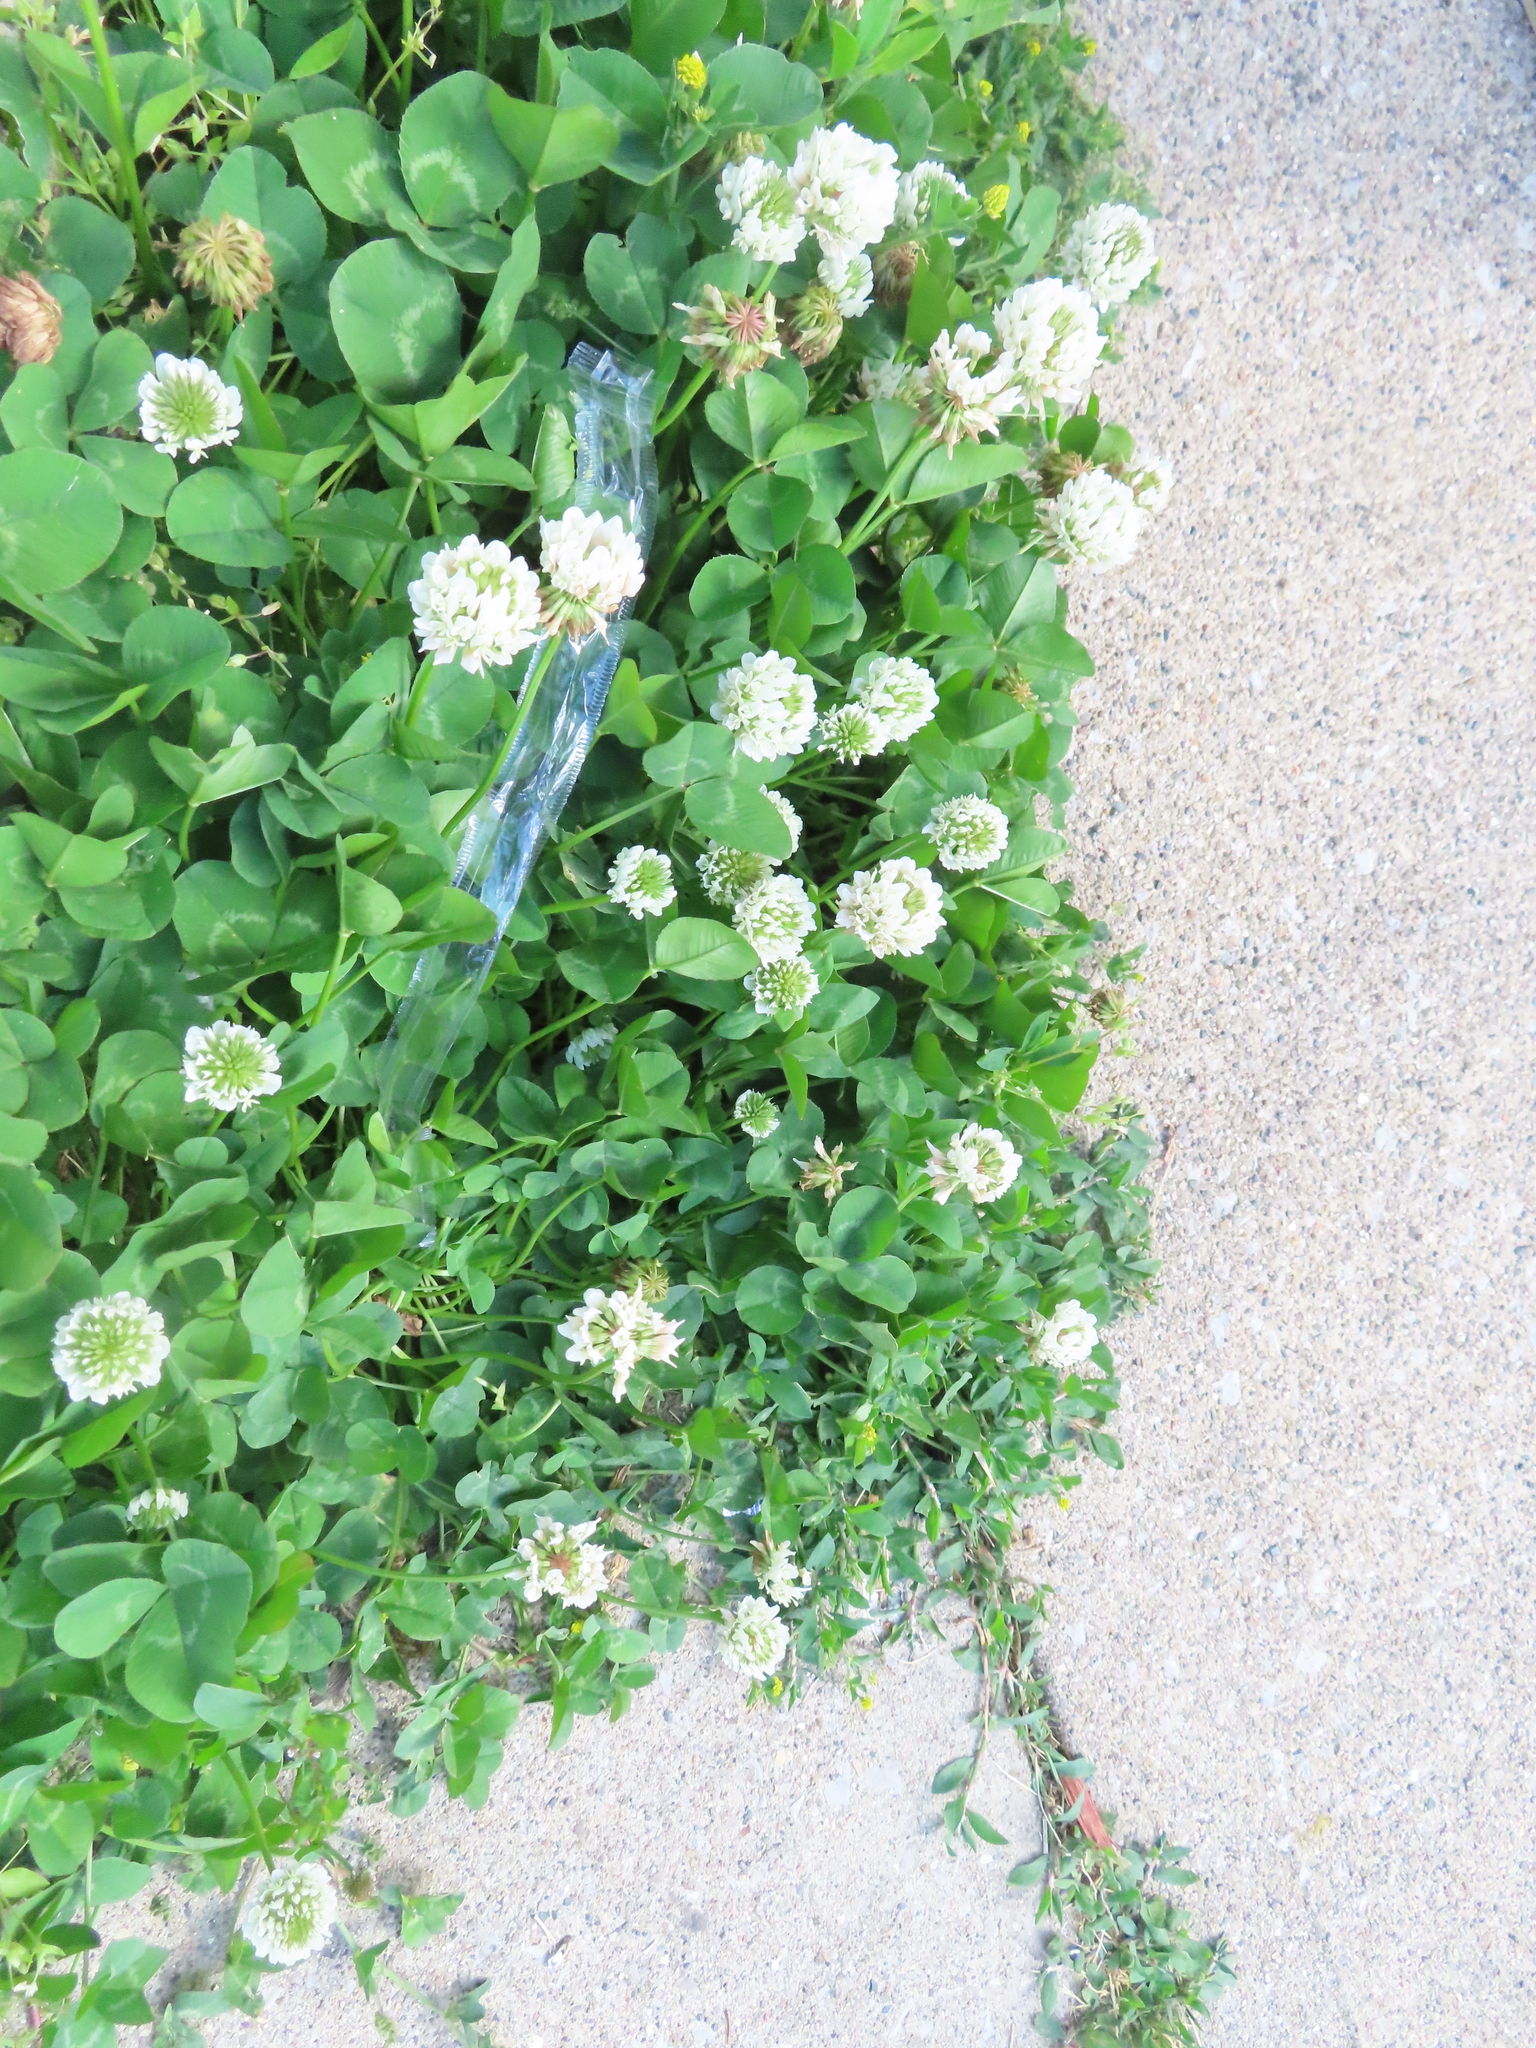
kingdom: Plantae
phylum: Tracheophyta
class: Magnoliopsida
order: Fabales
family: Fabaceae
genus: Trifolium
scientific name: Trifolium repens
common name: White clover
